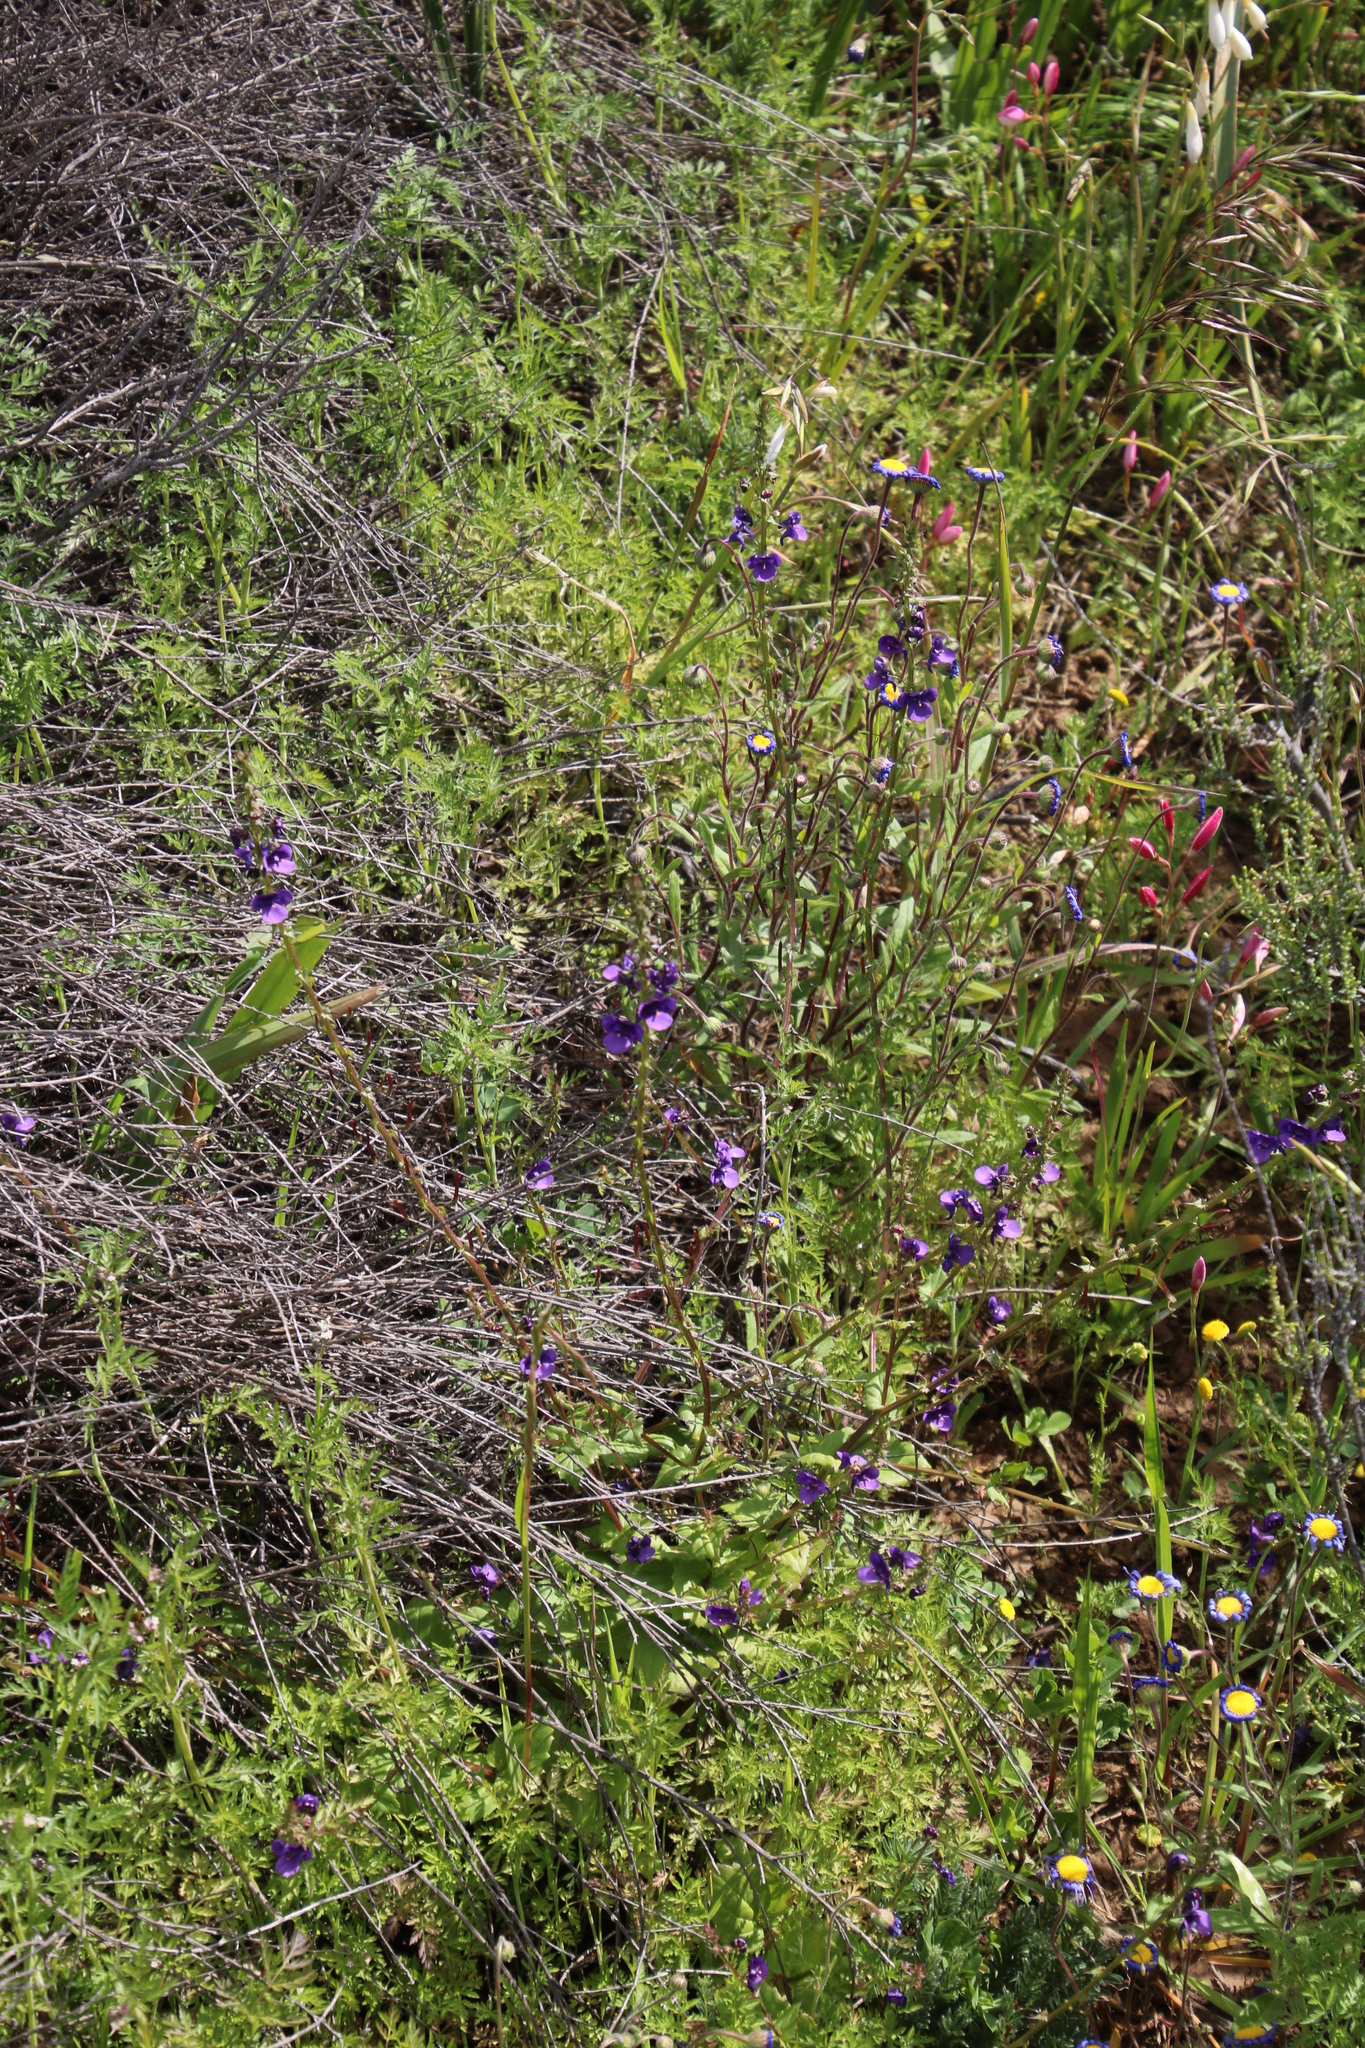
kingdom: Plantae
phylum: Tracheophyta
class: Liliopsida
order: Asparagales
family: Iridaceae
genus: Moraea
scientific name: Moraea tripetala
